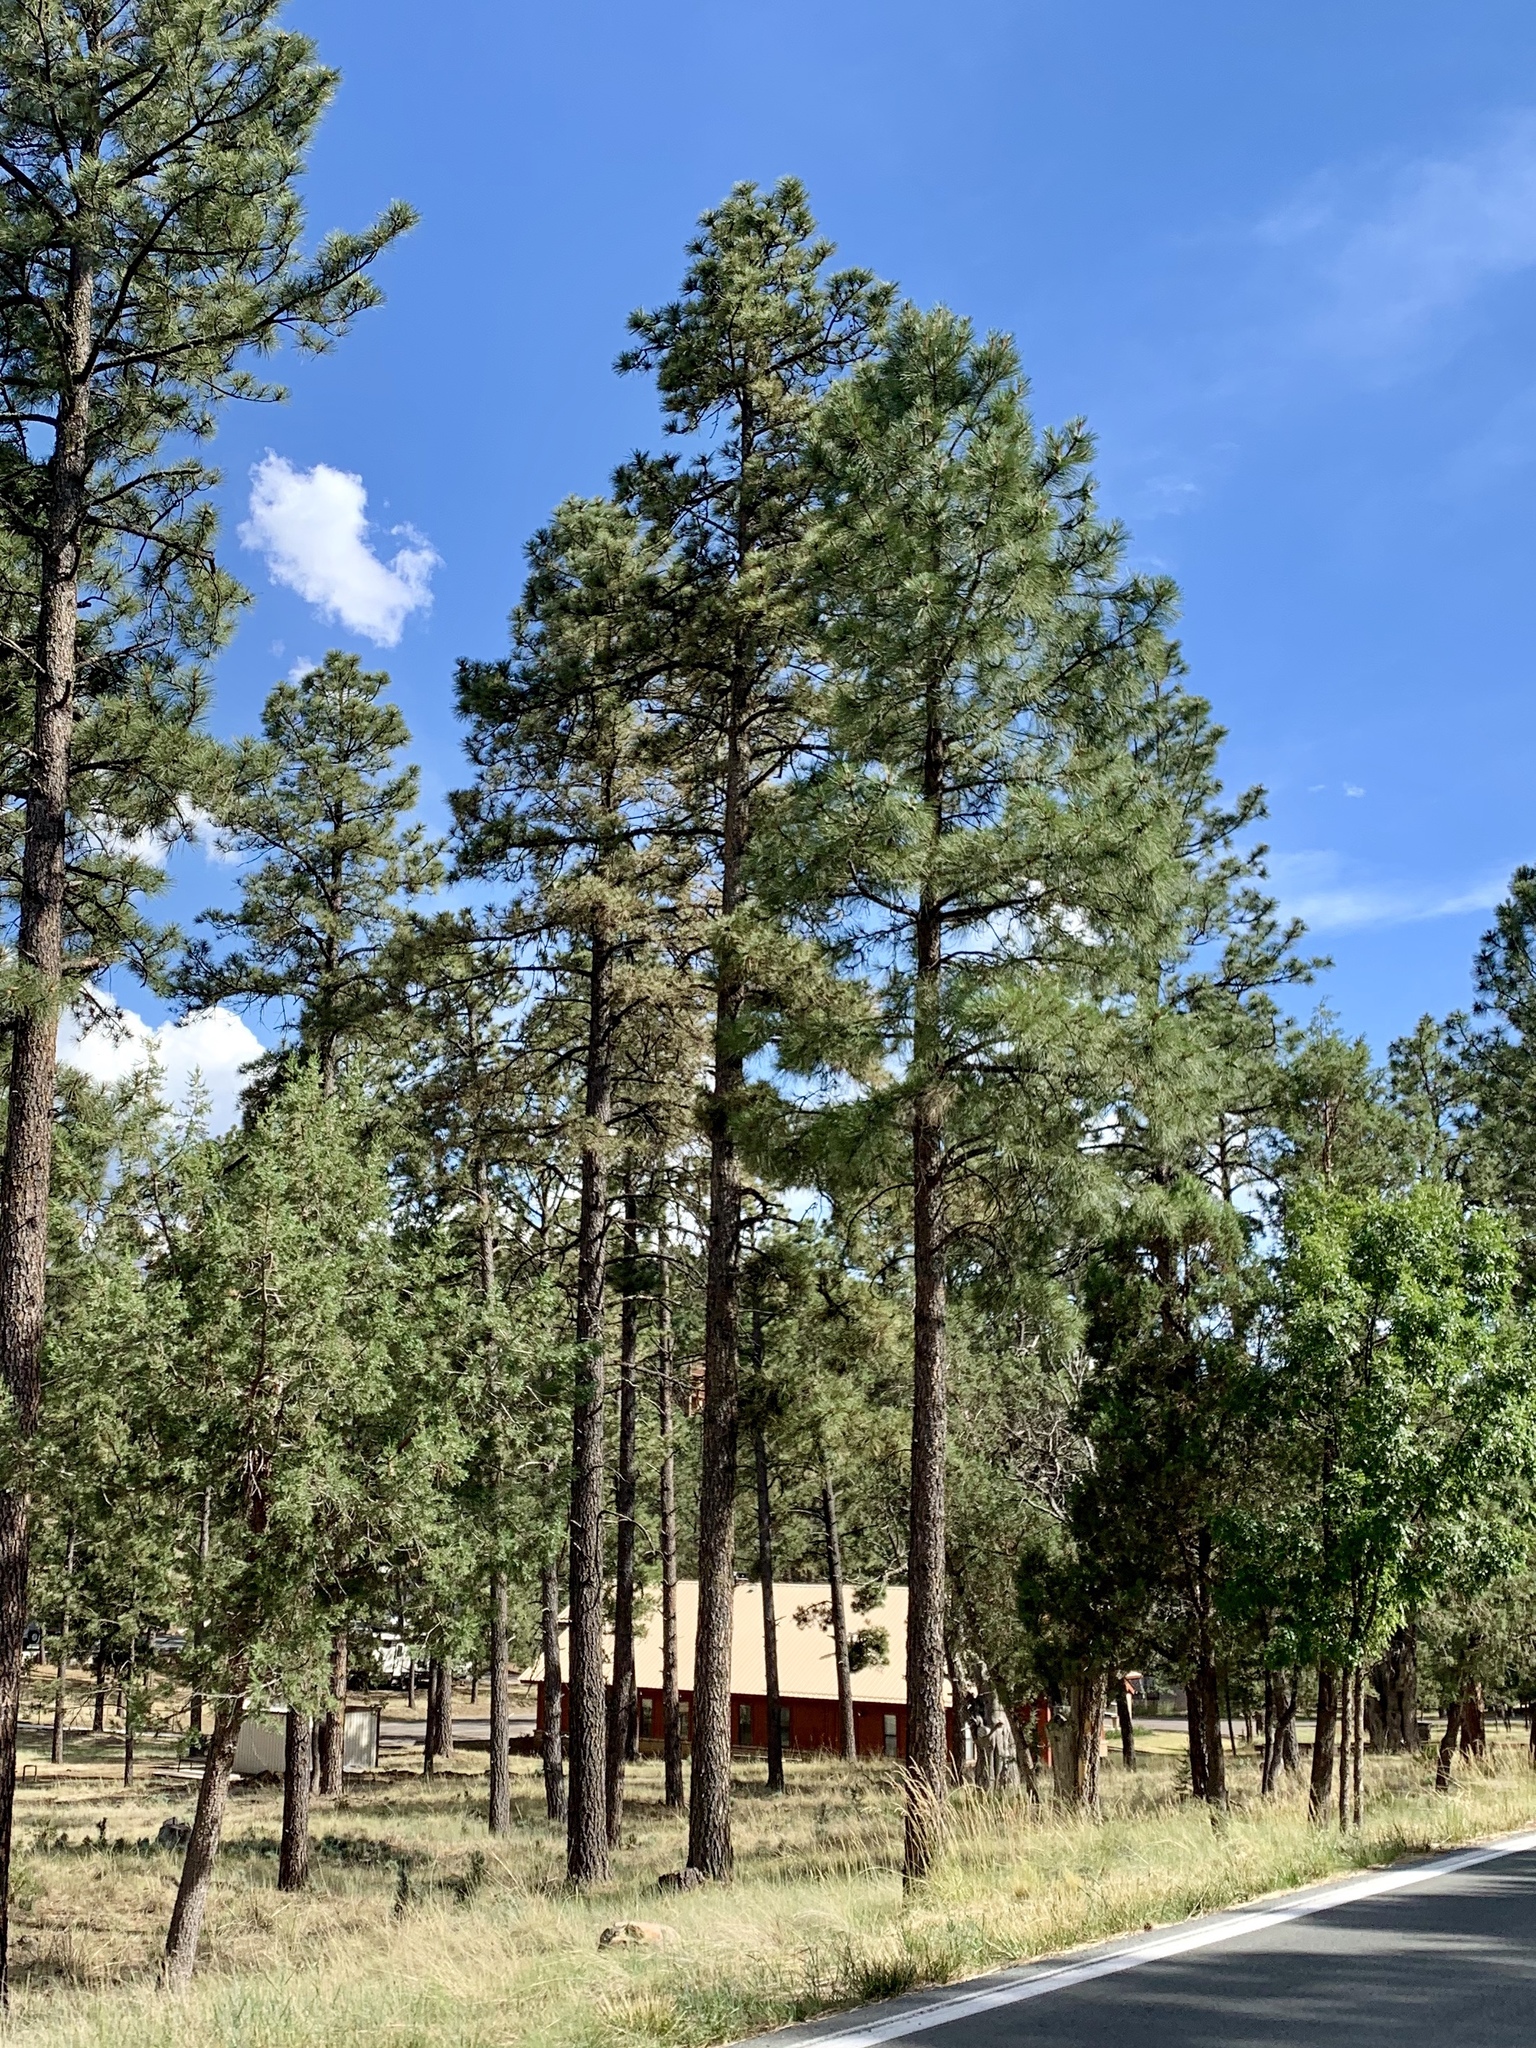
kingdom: Plantae
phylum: Tracheophyta
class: Pinopsida
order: Pinales
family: Pinaceae
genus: Pinus
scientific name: Pinus ponderosa
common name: Western yellow-pine
